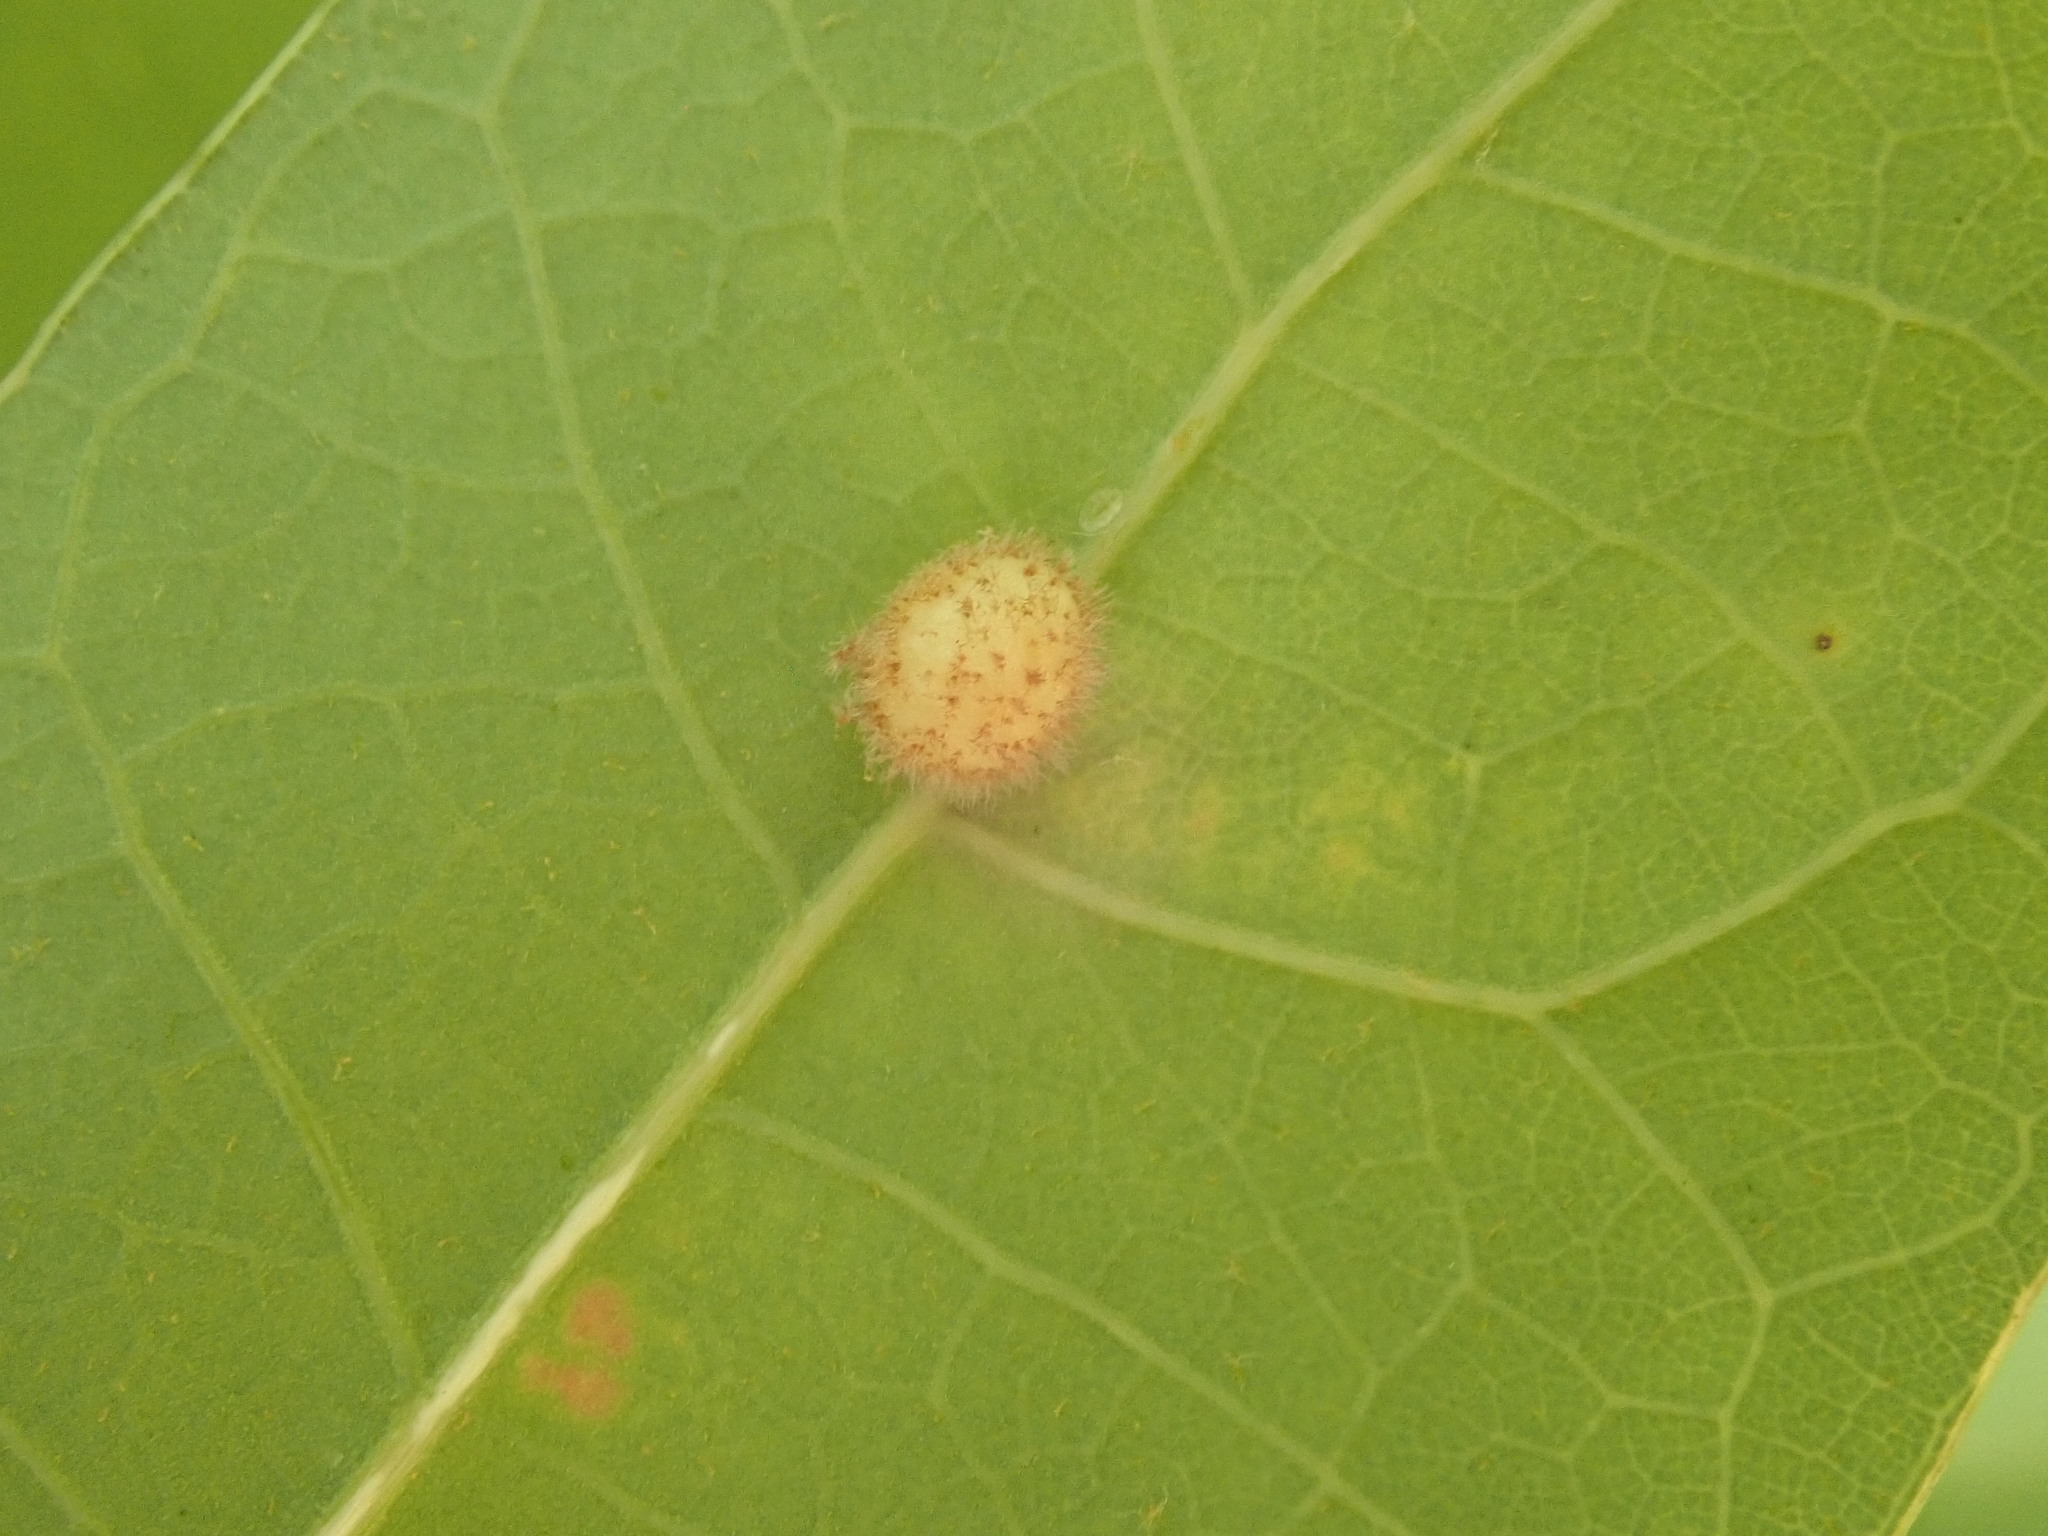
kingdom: Animalia
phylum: Arthropoda
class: Insecta
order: Hymenoptera
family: Cynipidae
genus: Philonix
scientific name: Philonix fulvicollis
